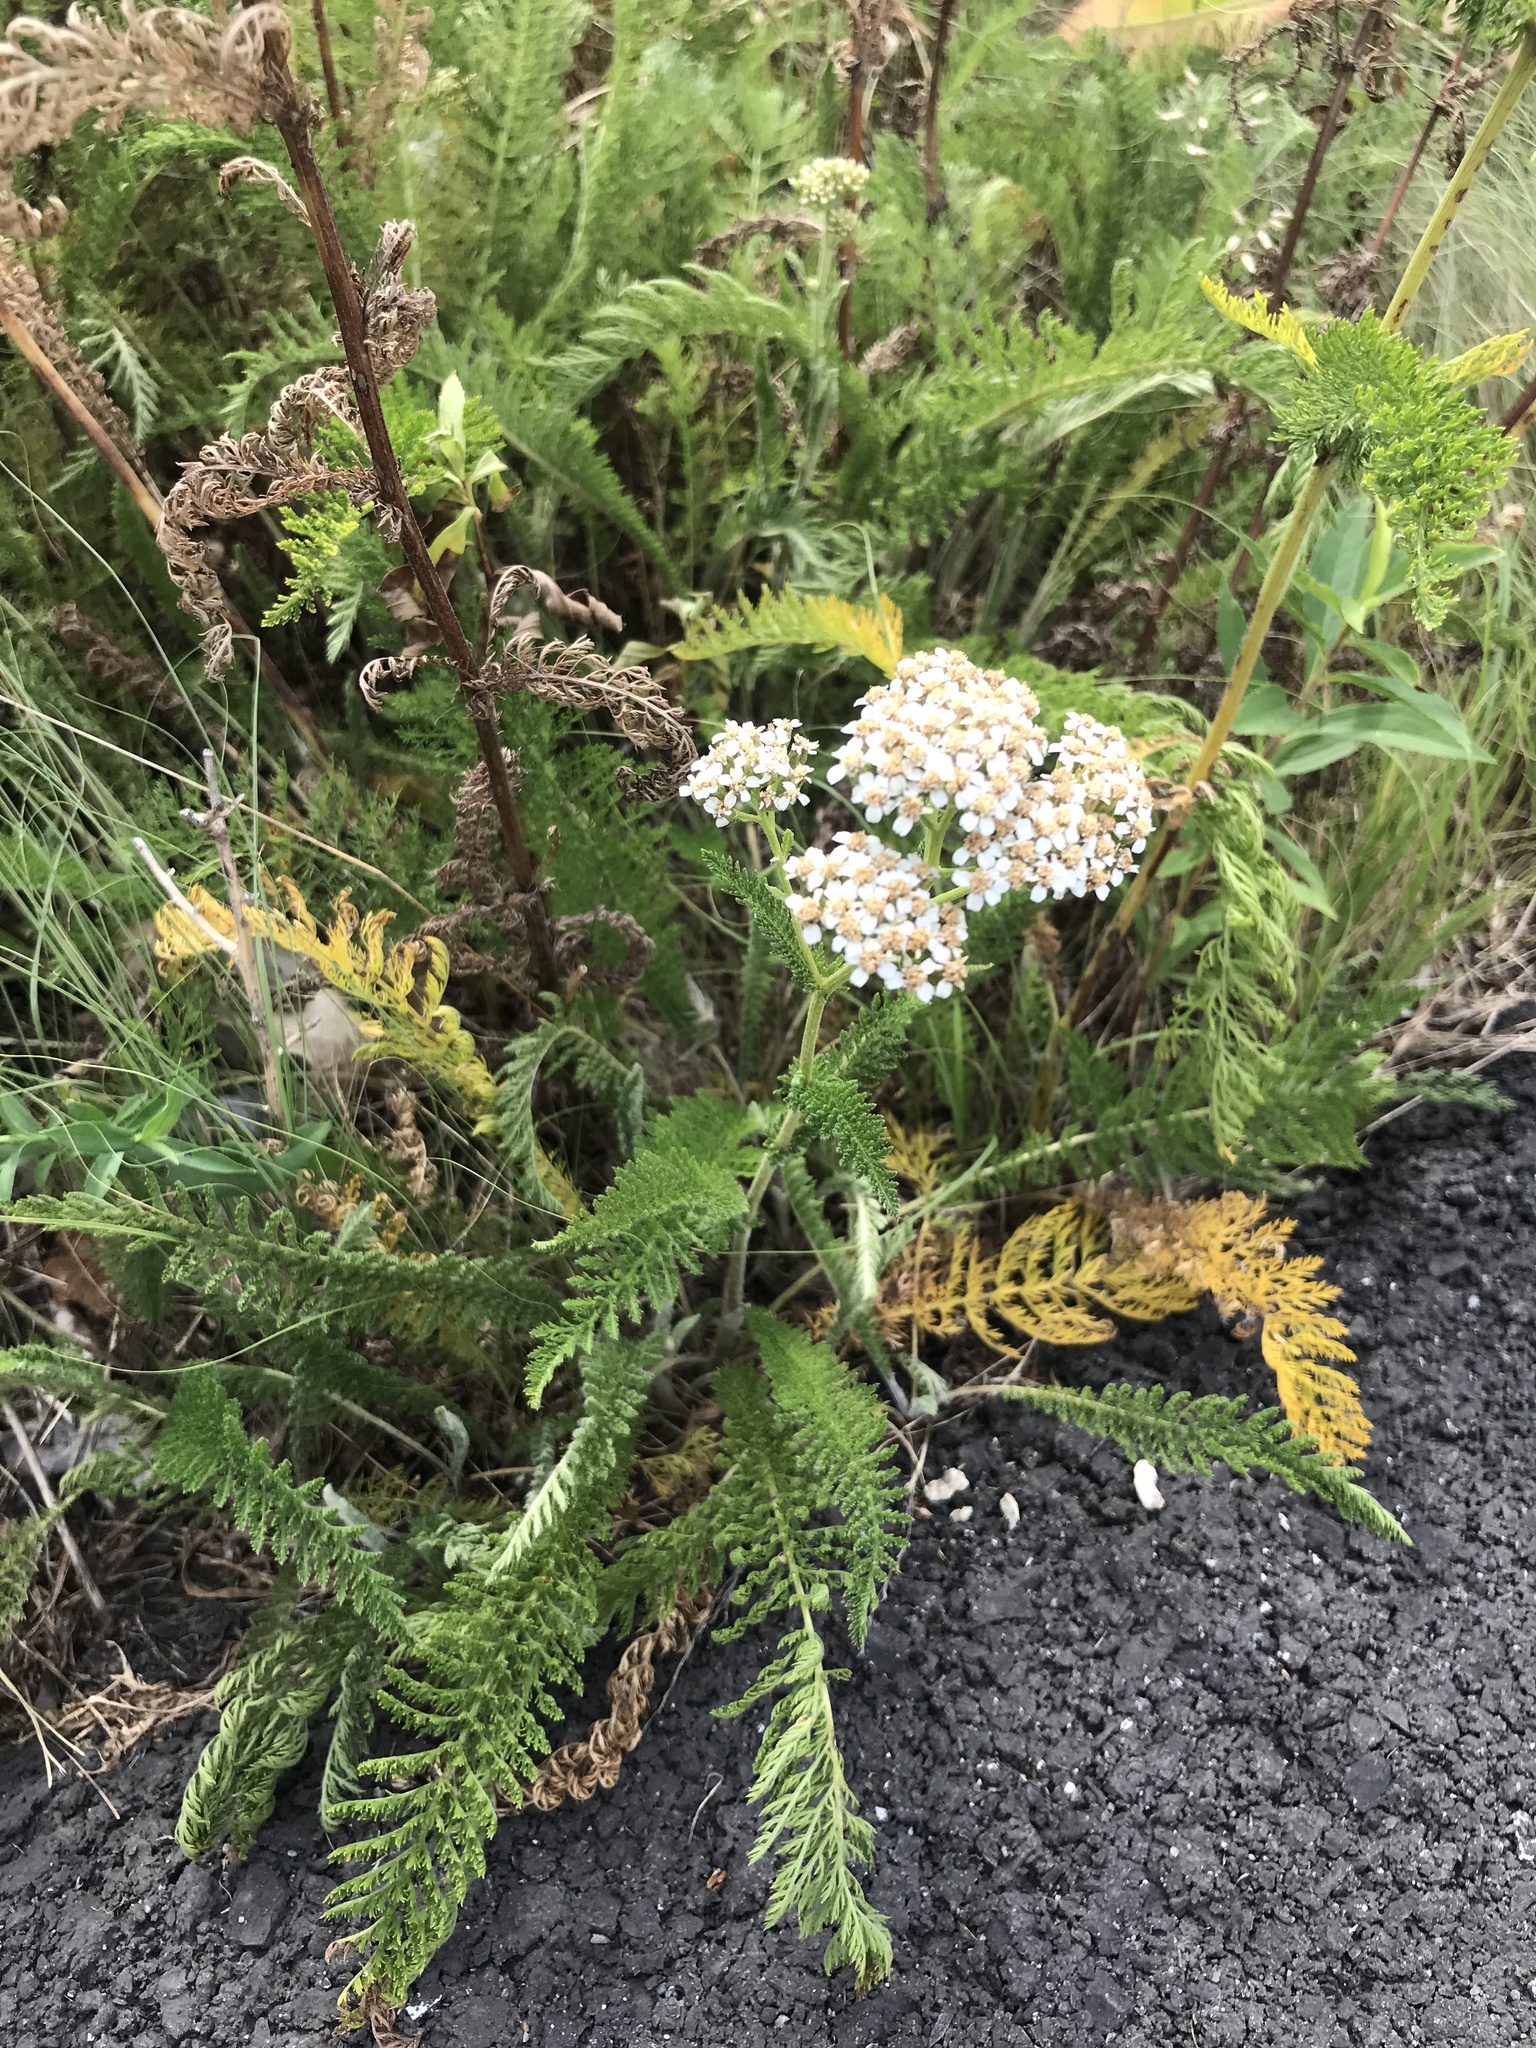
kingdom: Plantae
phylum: Tracheophyta
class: Magnoliopsida
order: Asterales
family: Asteraceae
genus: Achillea
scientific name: Achillea millefolium
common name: Yarrow
